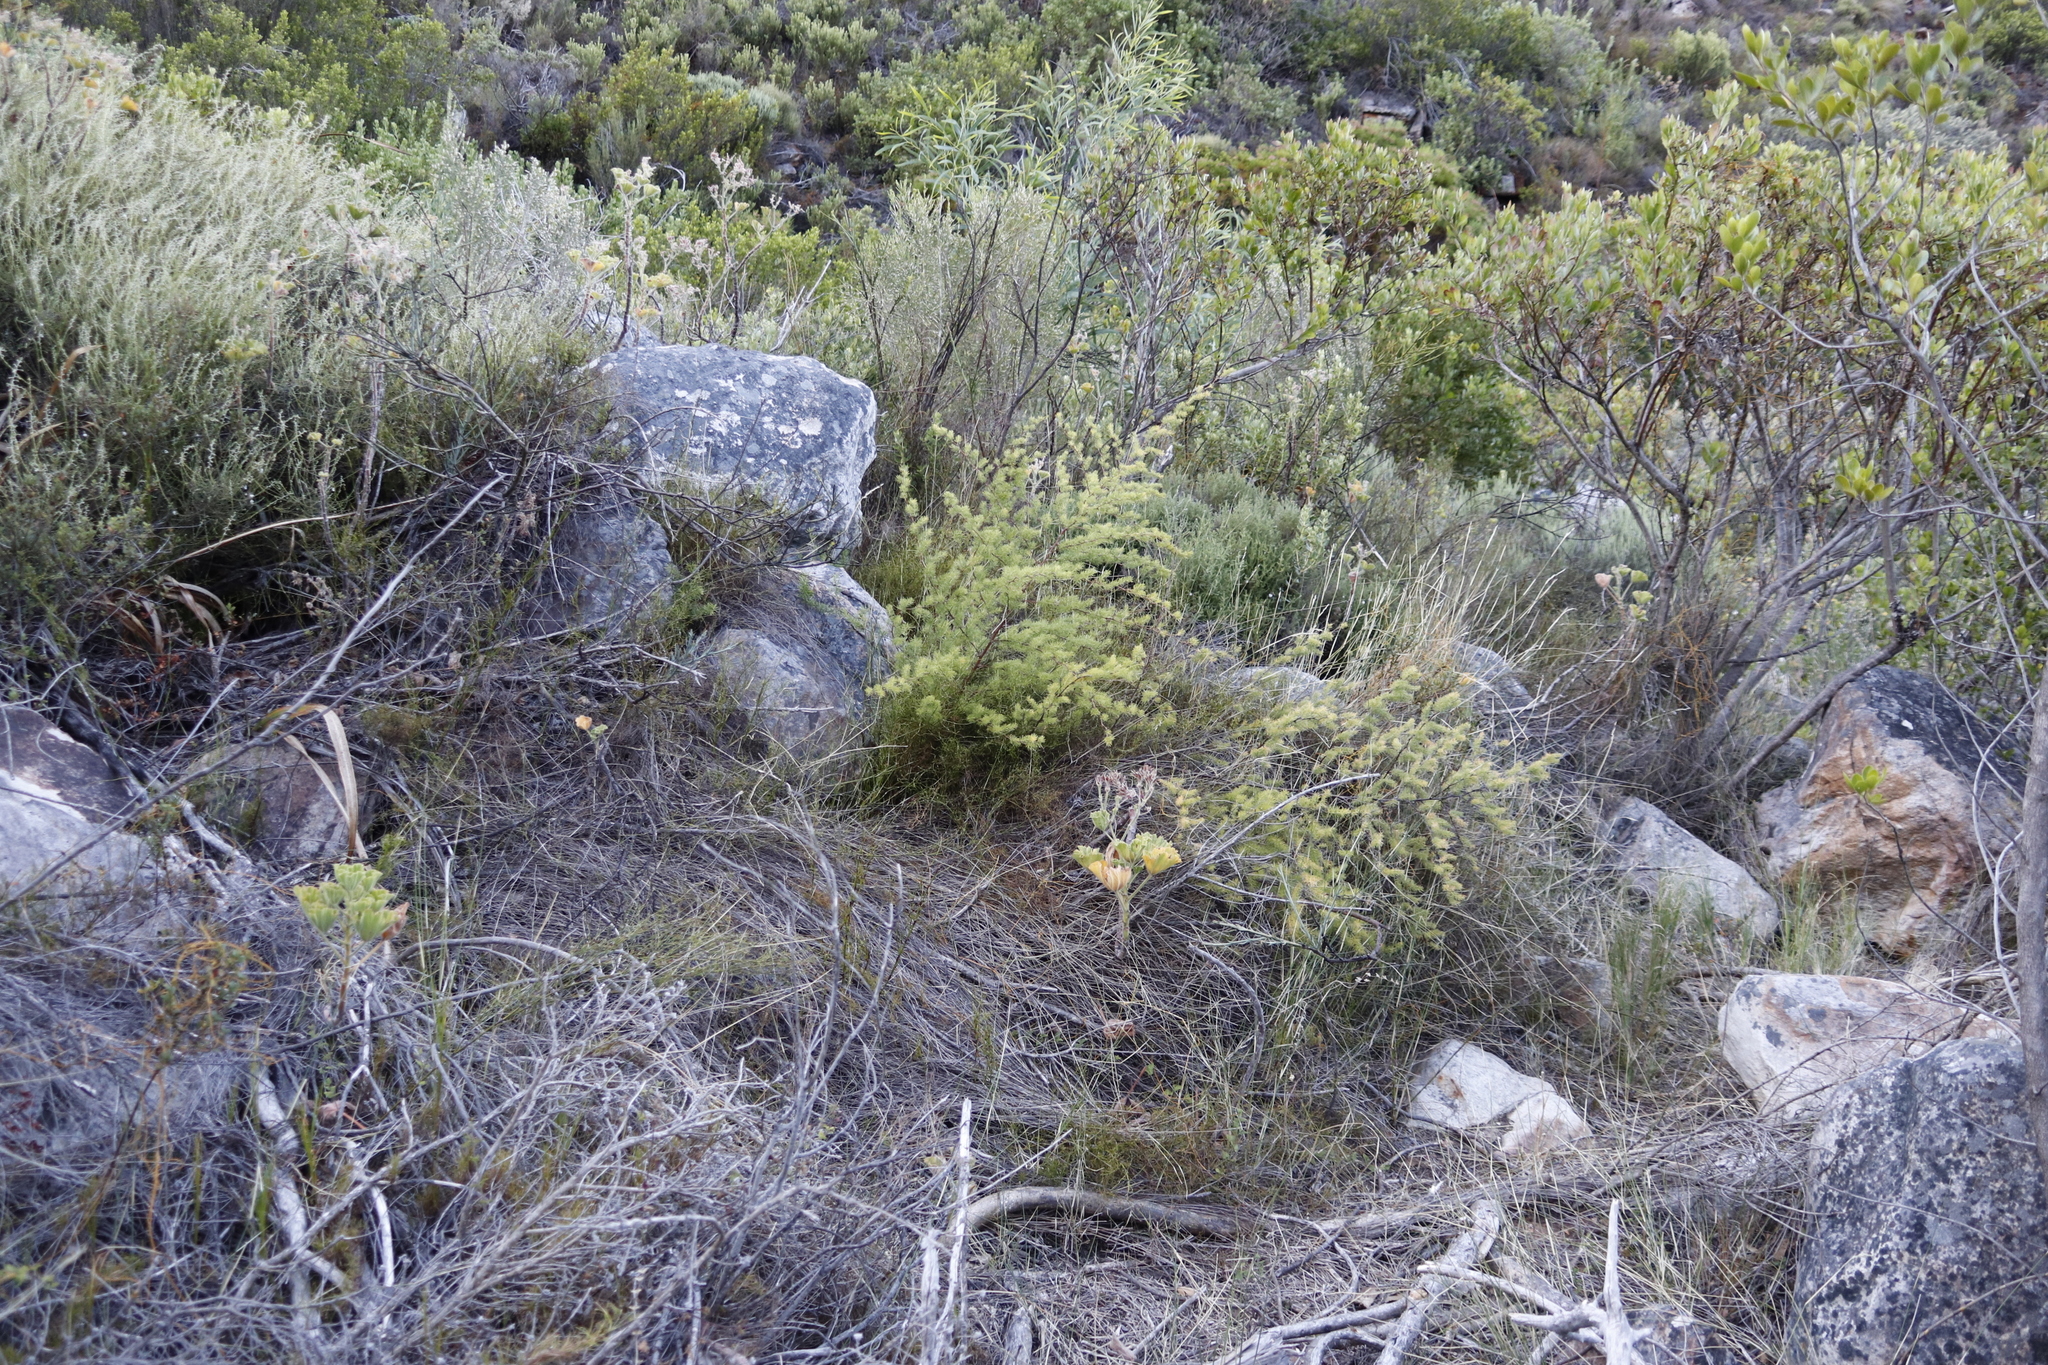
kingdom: Plantae
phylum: Tracheophyta
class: Liliopsida
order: Asparagales
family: Asparagaceae
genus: Asparagus
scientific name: Asparagus rubicundus
